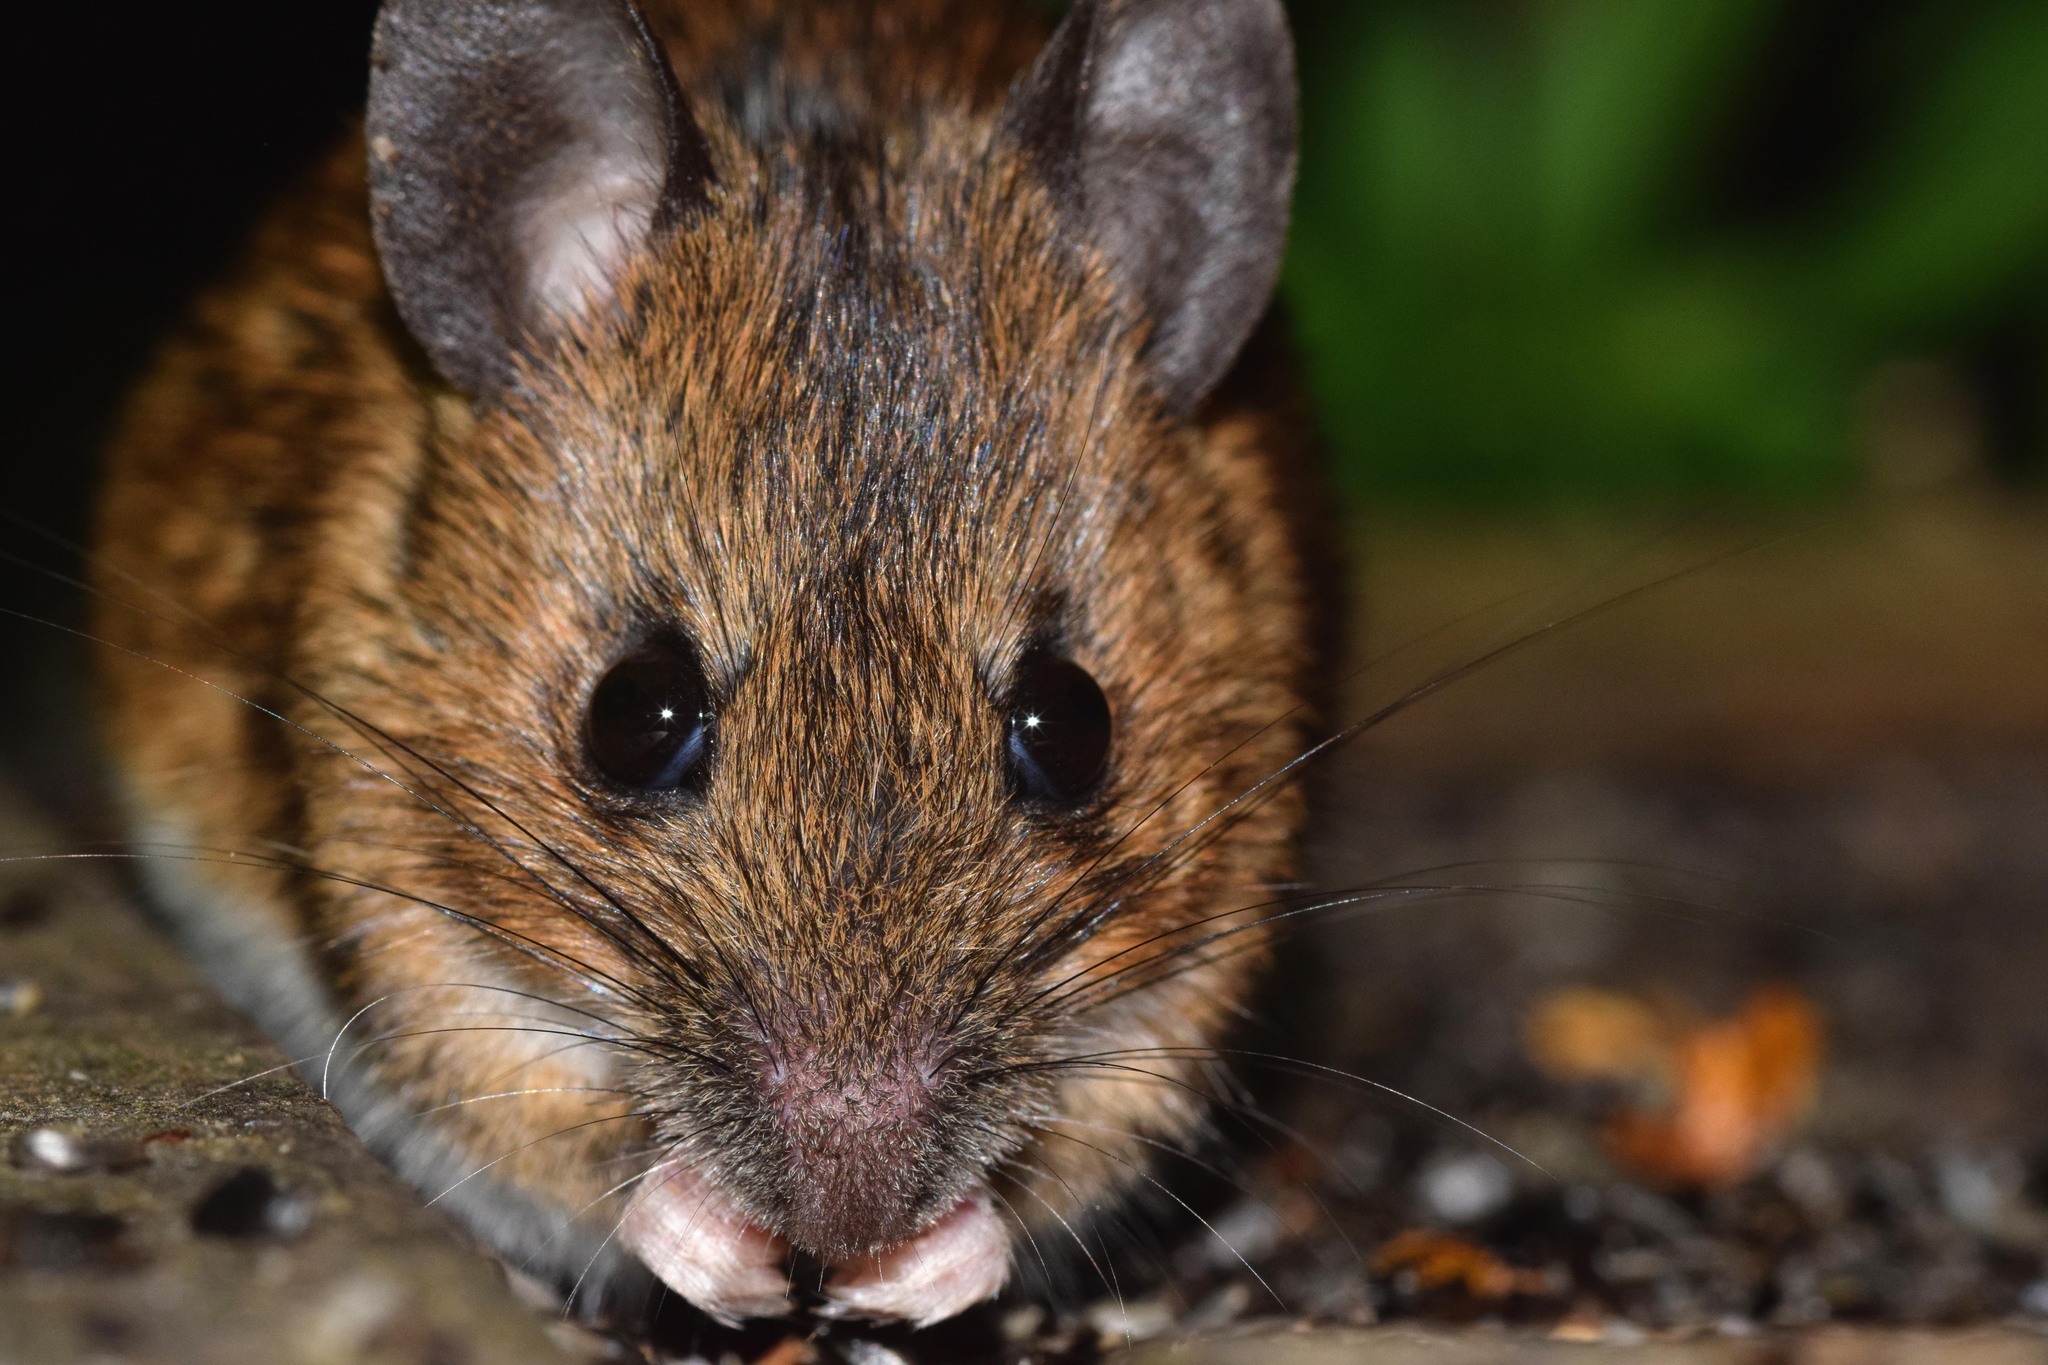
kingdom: Animalia
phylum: Chordata
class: Mammalia
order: Rodentia
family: Muridae
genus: Apodemus
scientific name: Apodemus sylvaticus
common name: Wood mouse
